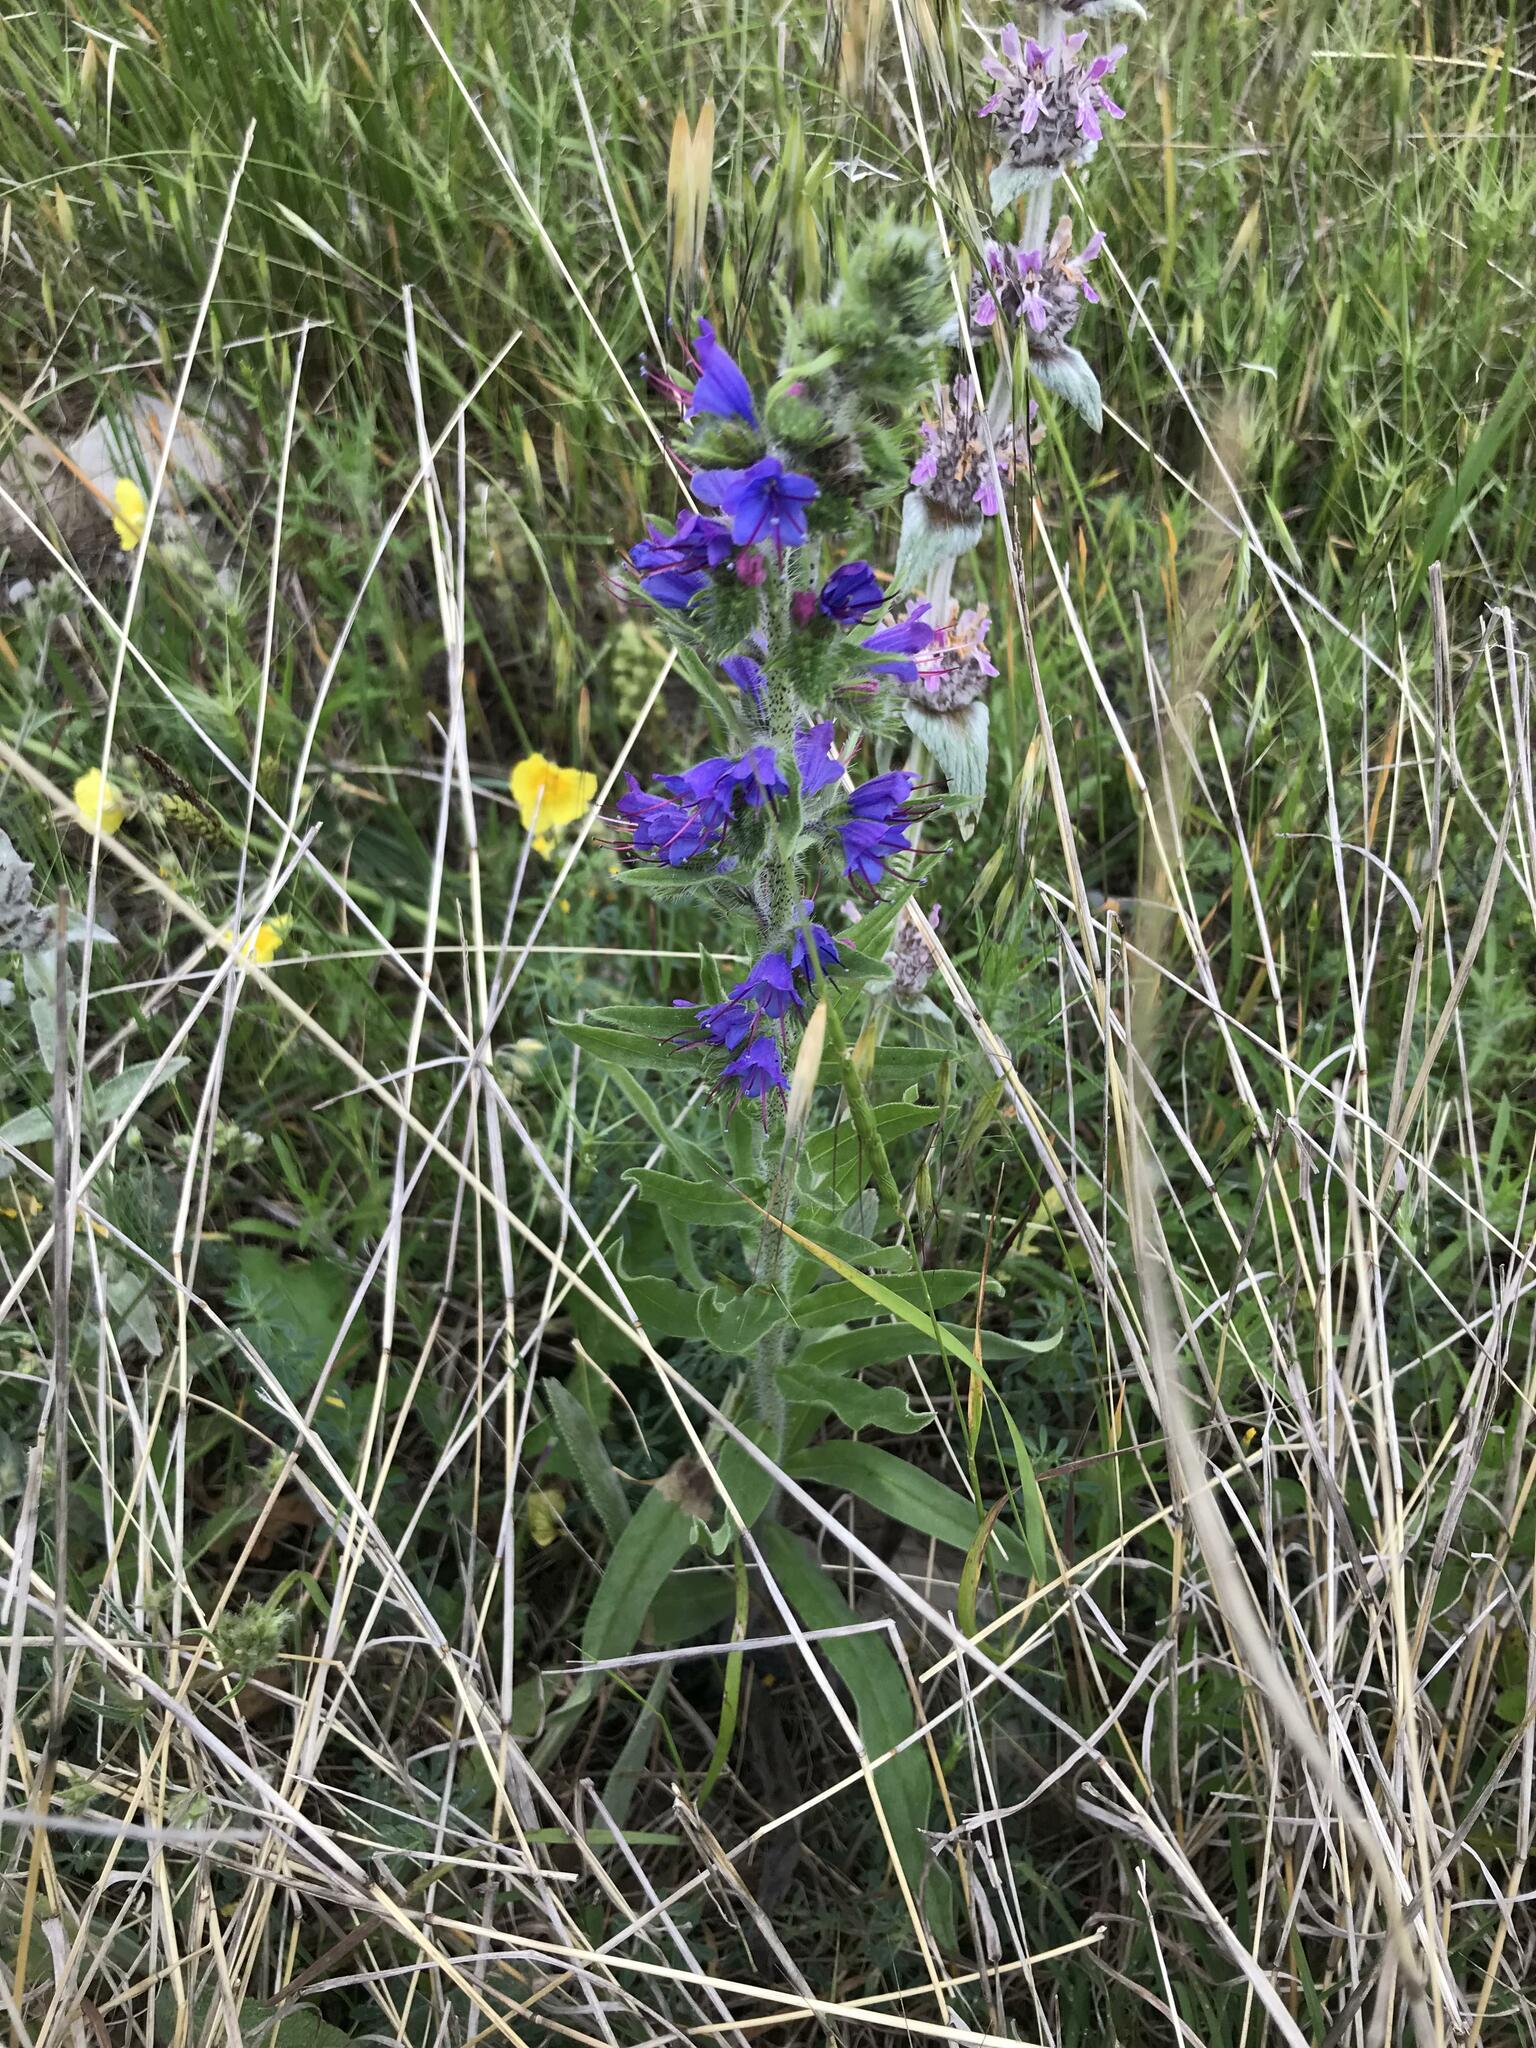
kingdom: Plantae
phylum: Tracheophyta
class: Magnoliopsida
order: Boraginales
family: Boraginaceae
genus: Echium
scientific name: Echium vulgare
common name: Common viper's bugloss
